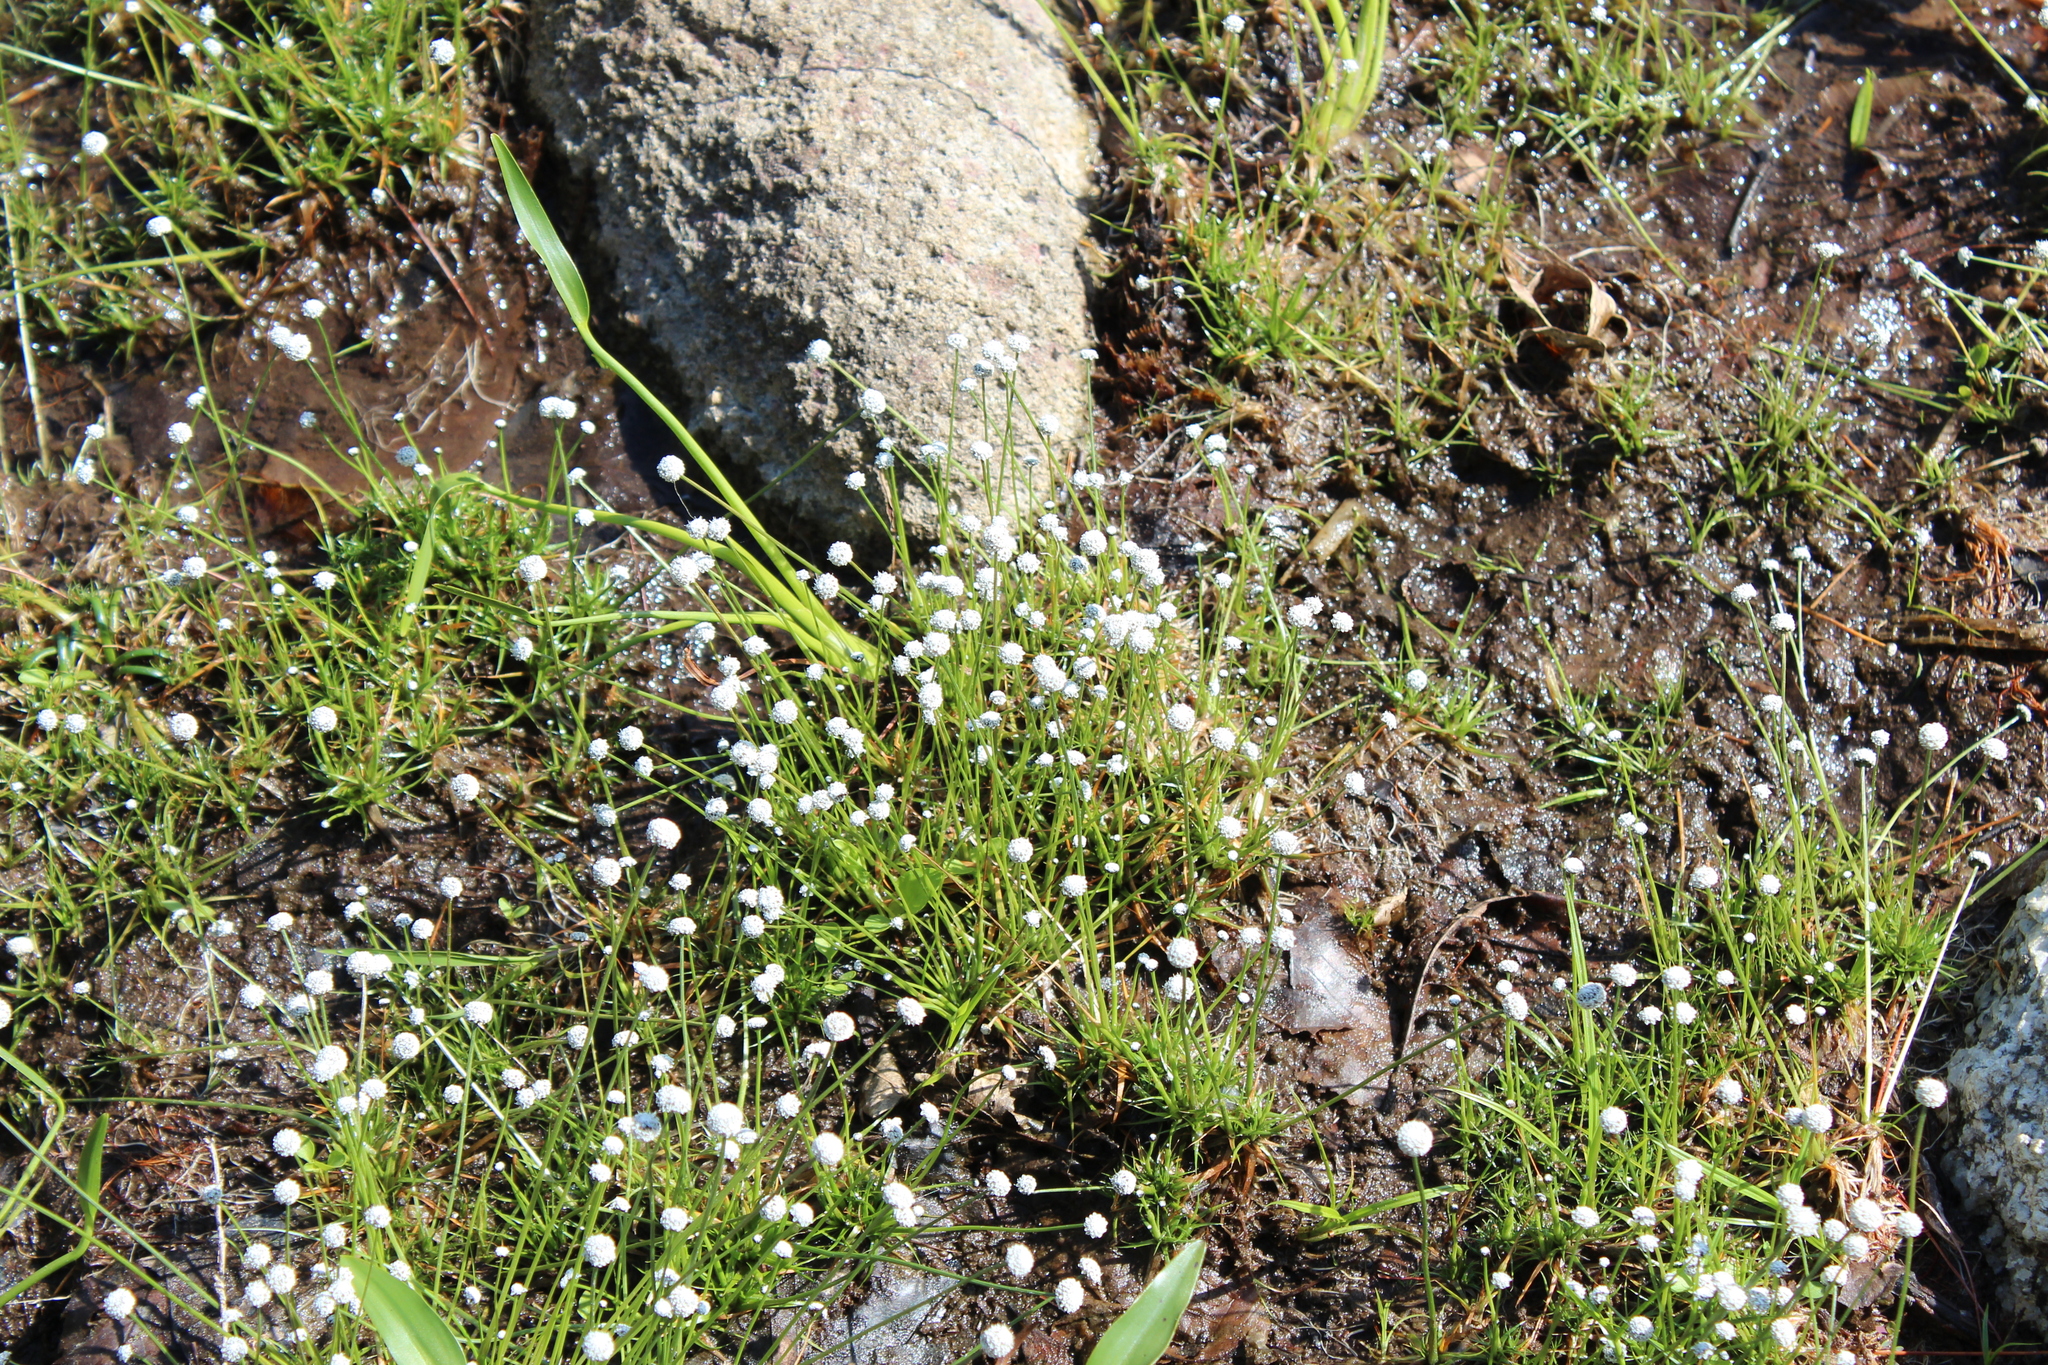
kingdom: Plantae
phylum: Tracheophyta
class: Liliopsida
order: Poales
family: Eriocaulaceae
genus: Eriocaulon
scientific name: Eriocaulon aquaticum
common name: Pipewort
